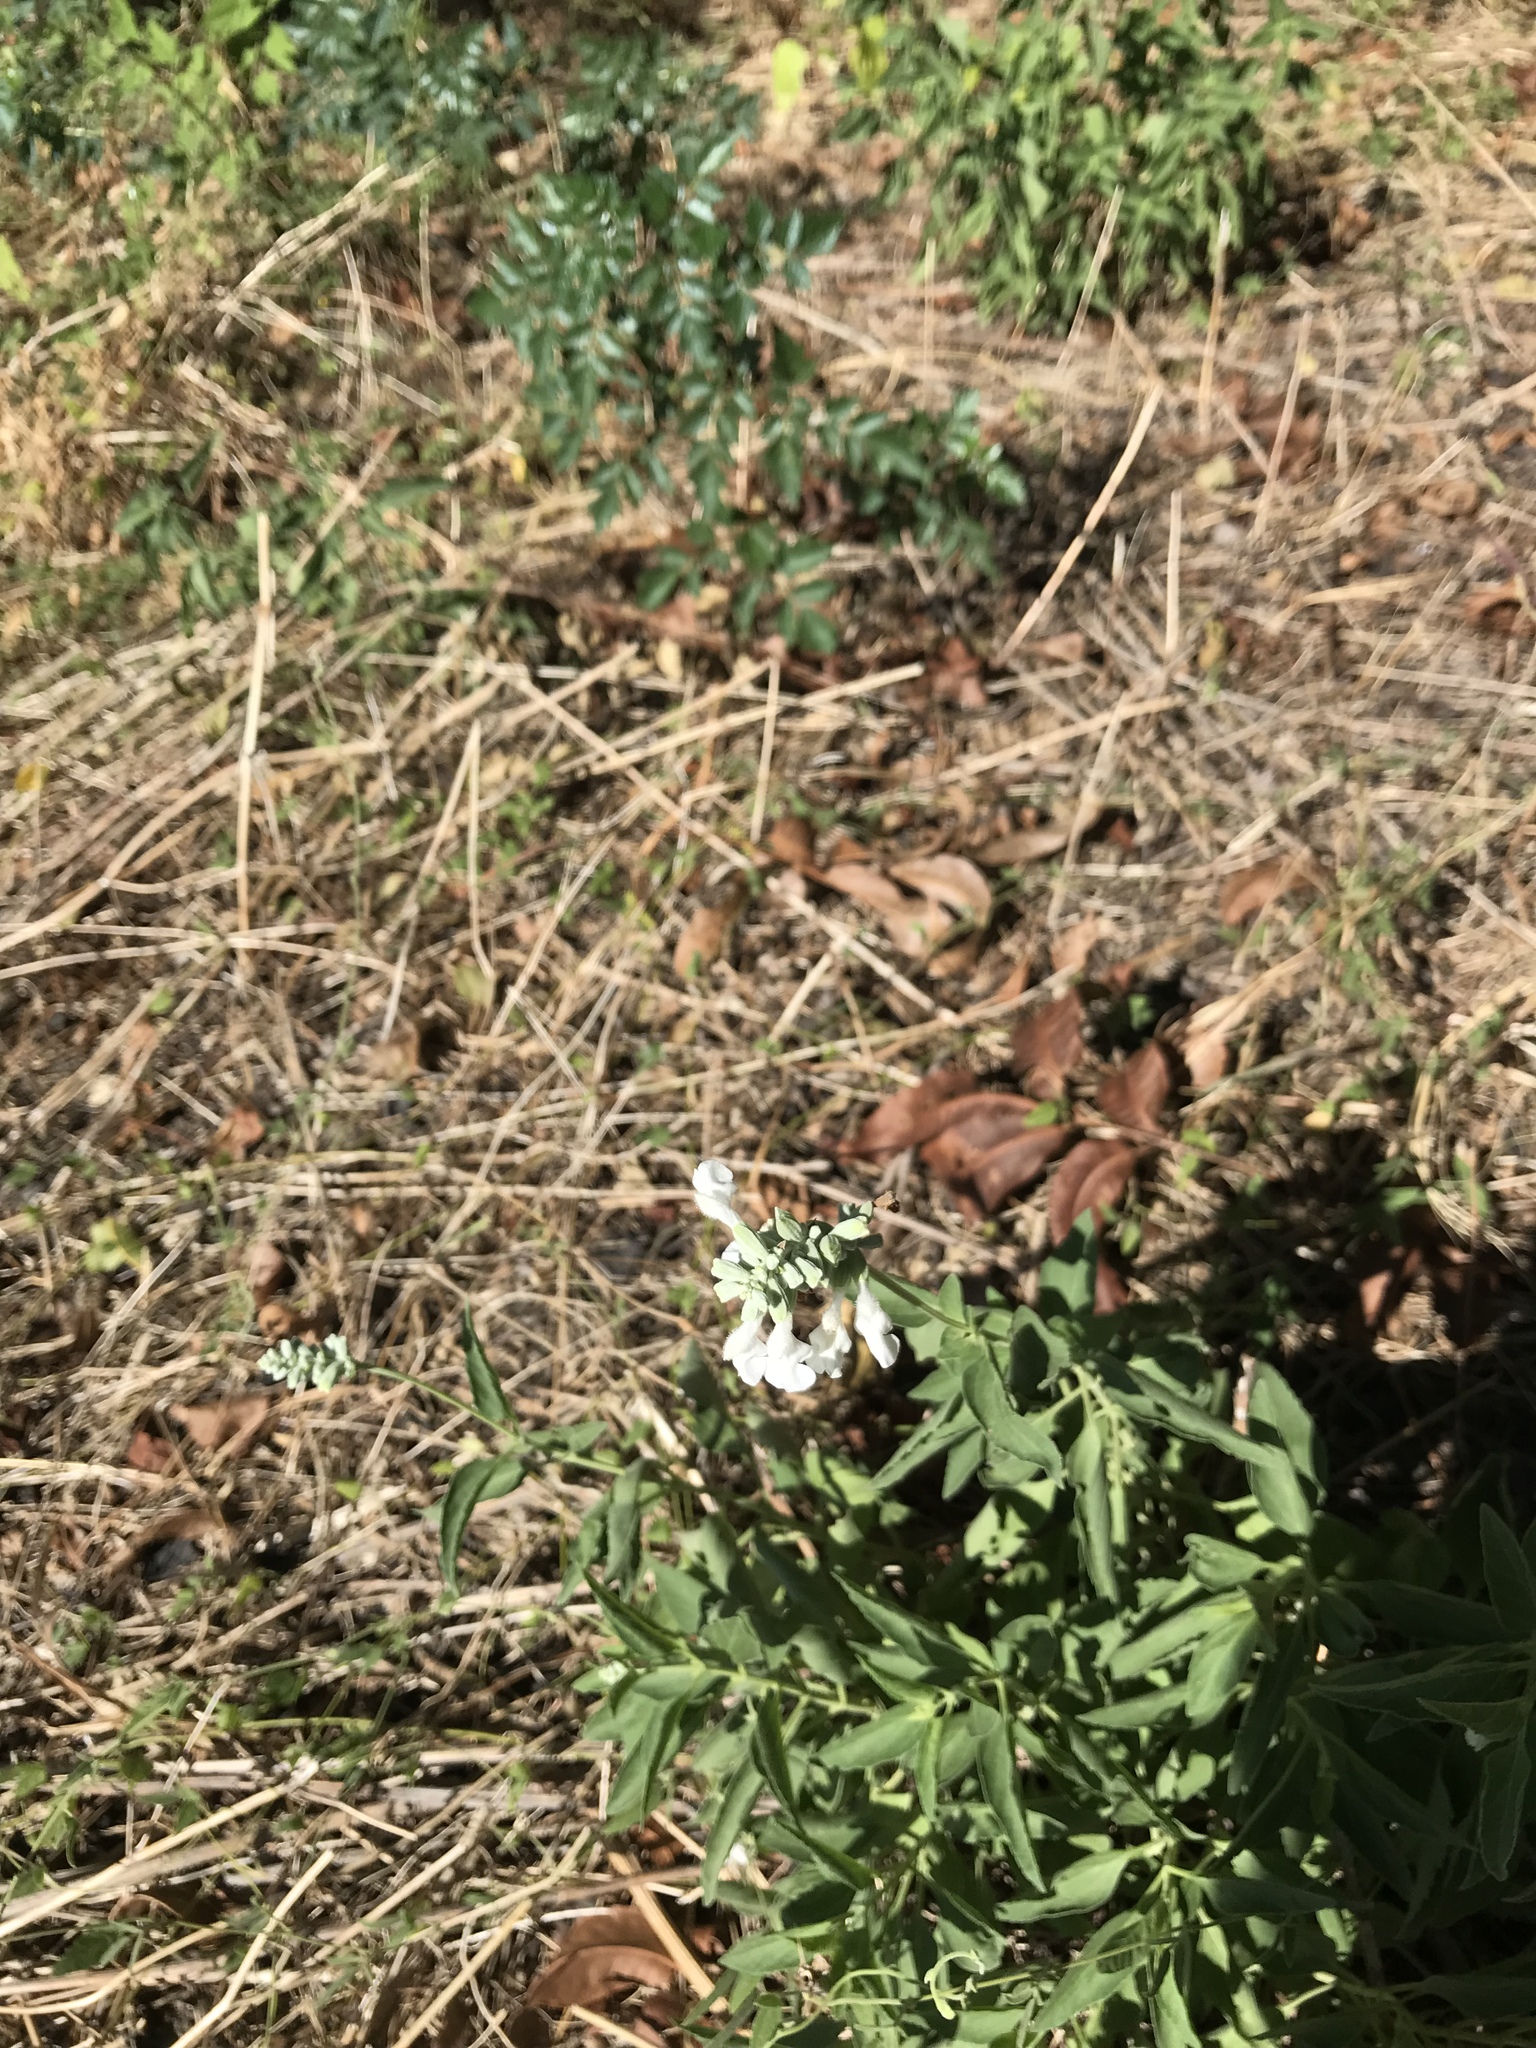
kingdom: Plantae
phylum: Tracheophyta
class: Magnoliopsida
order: Lamiales
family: Lamiaceae
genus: Salvia
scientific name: Salvia farinacea
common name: Mealy sage
